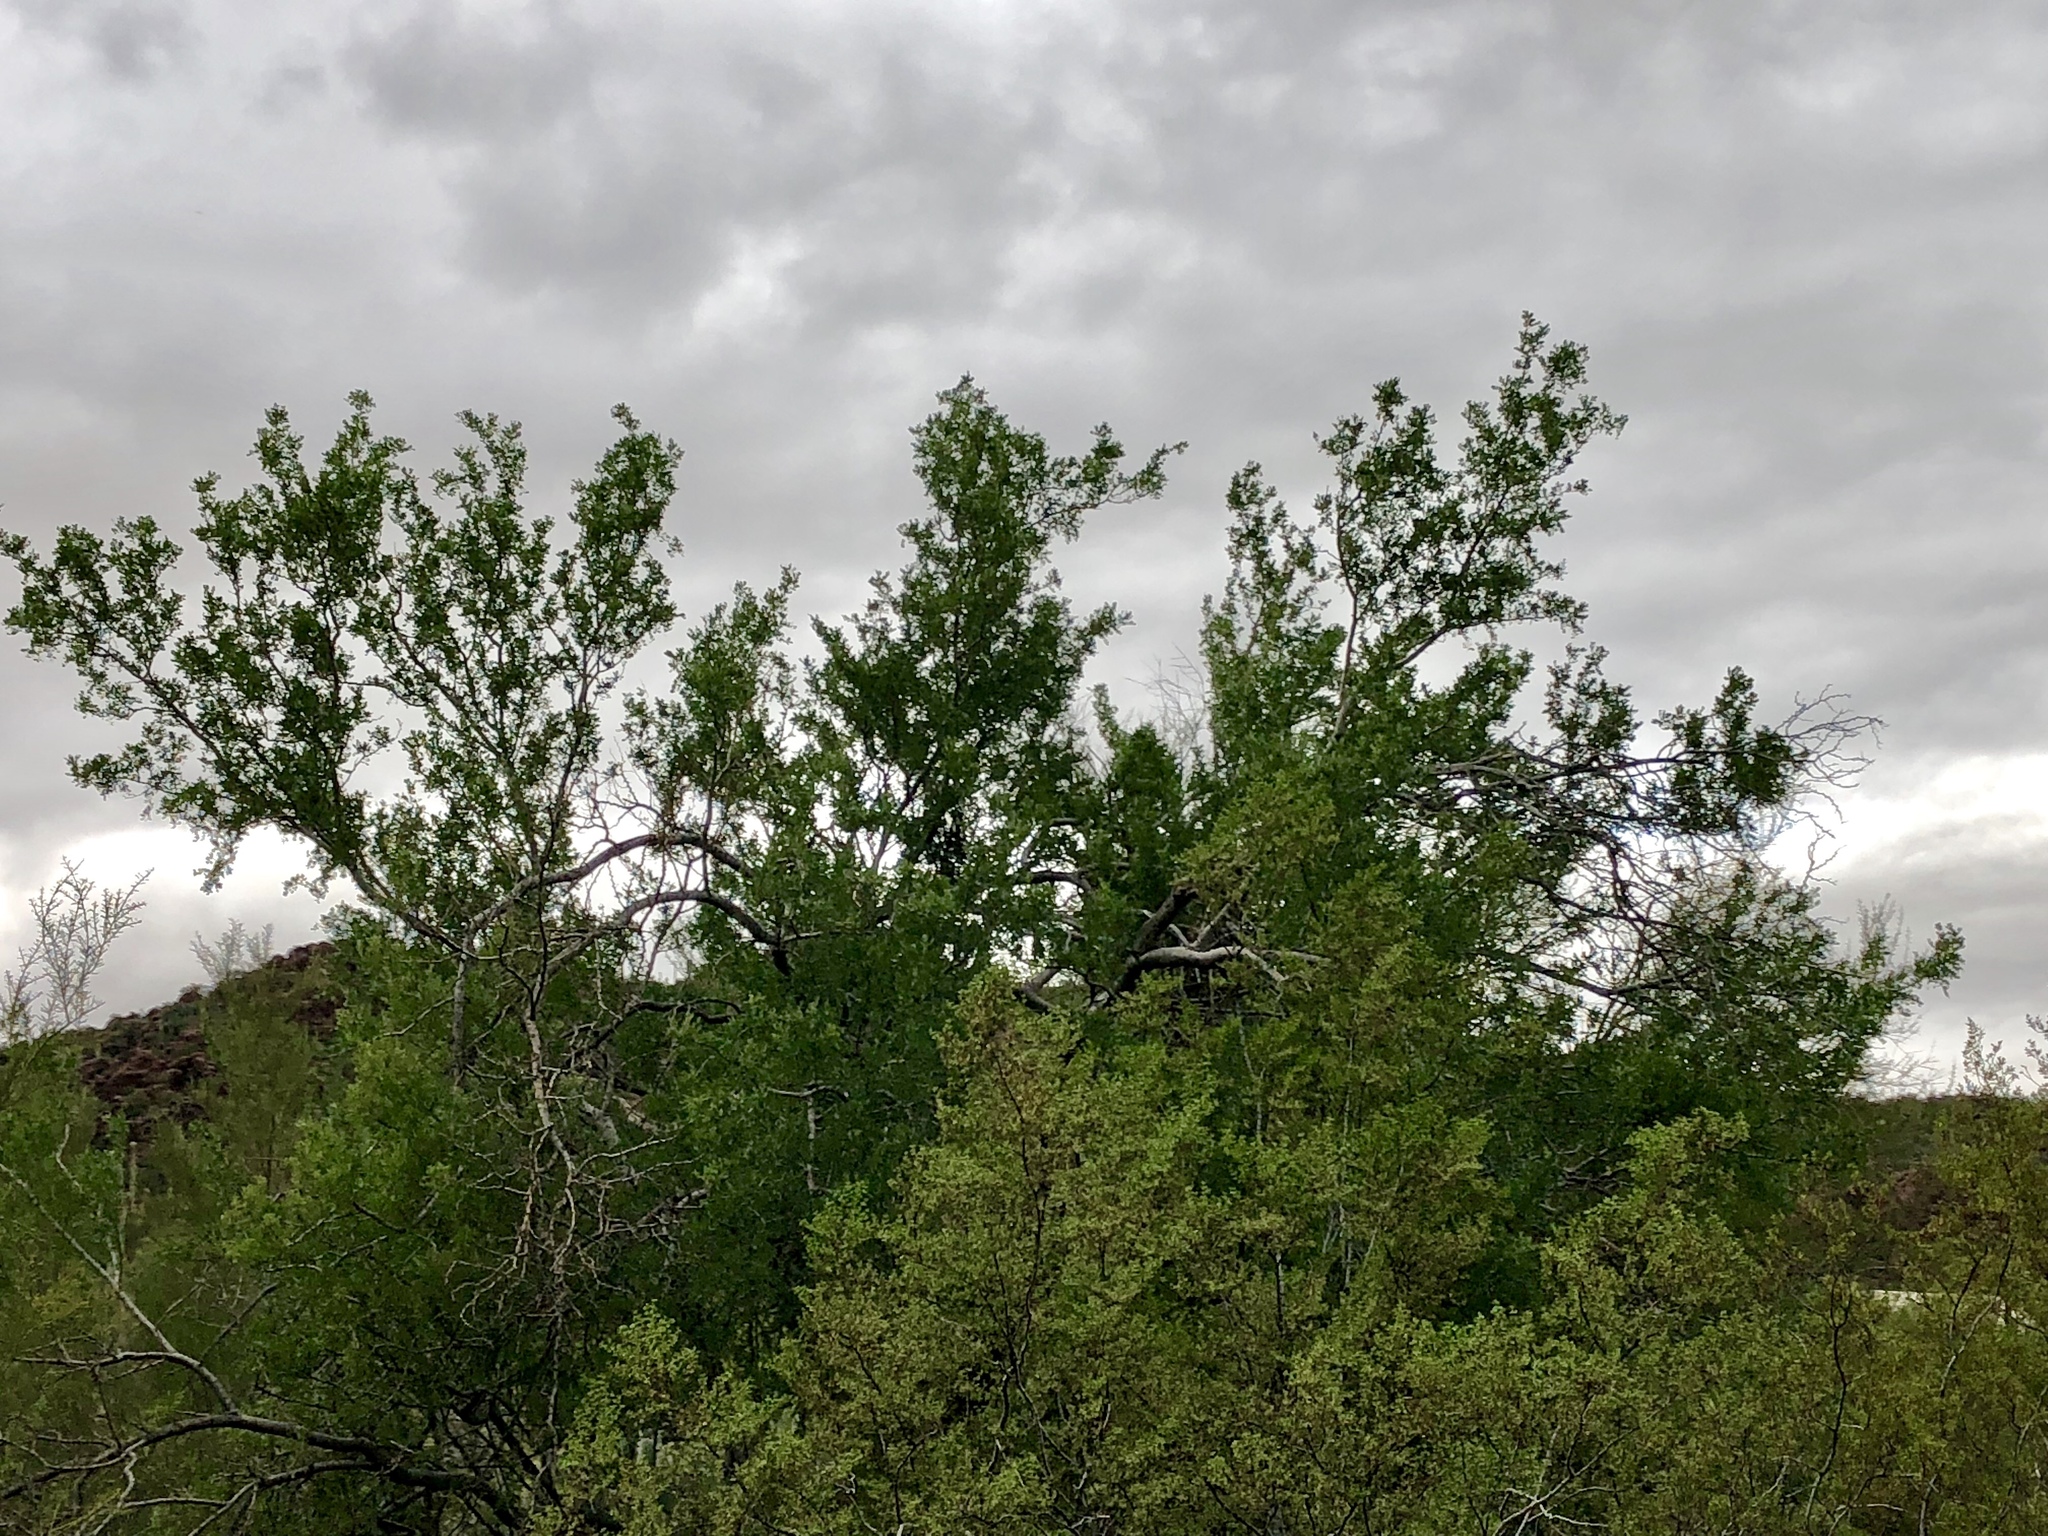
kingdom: Plantae
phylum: Tracheophyta
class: Magnoliopsida
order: Fabales
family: Fabaceae
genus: Olneya
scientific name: Olneya tesota
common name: Desert ironwood
